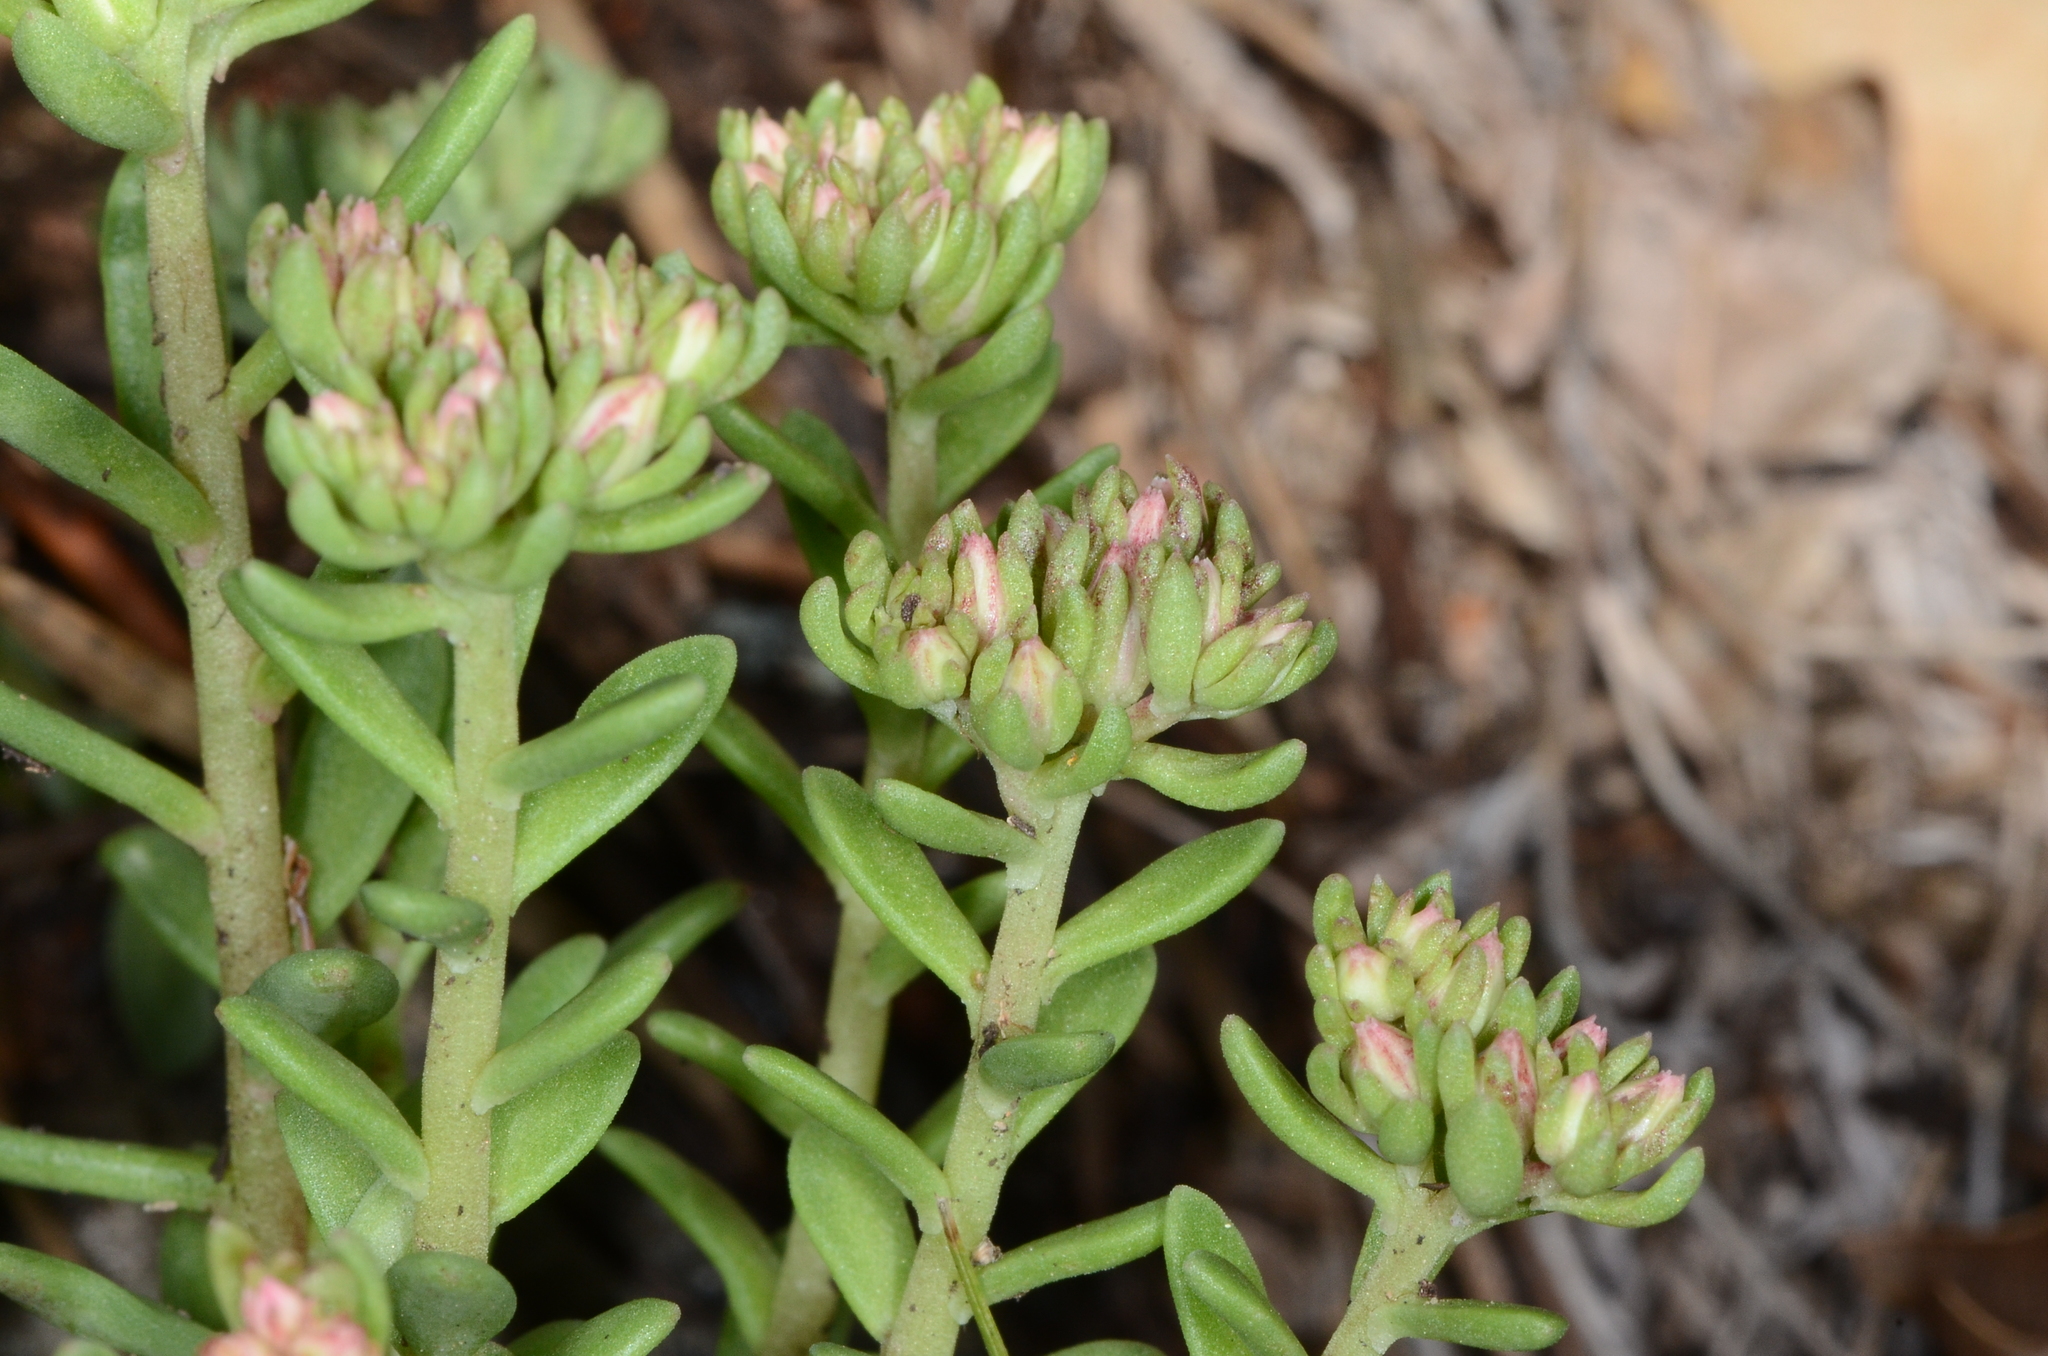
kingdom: Plantae
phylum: Tracheophyta
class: Magnoliopsida
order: Saxifragales
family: Crassulaceae
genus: Sedum
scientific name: Sedum cockerellii
